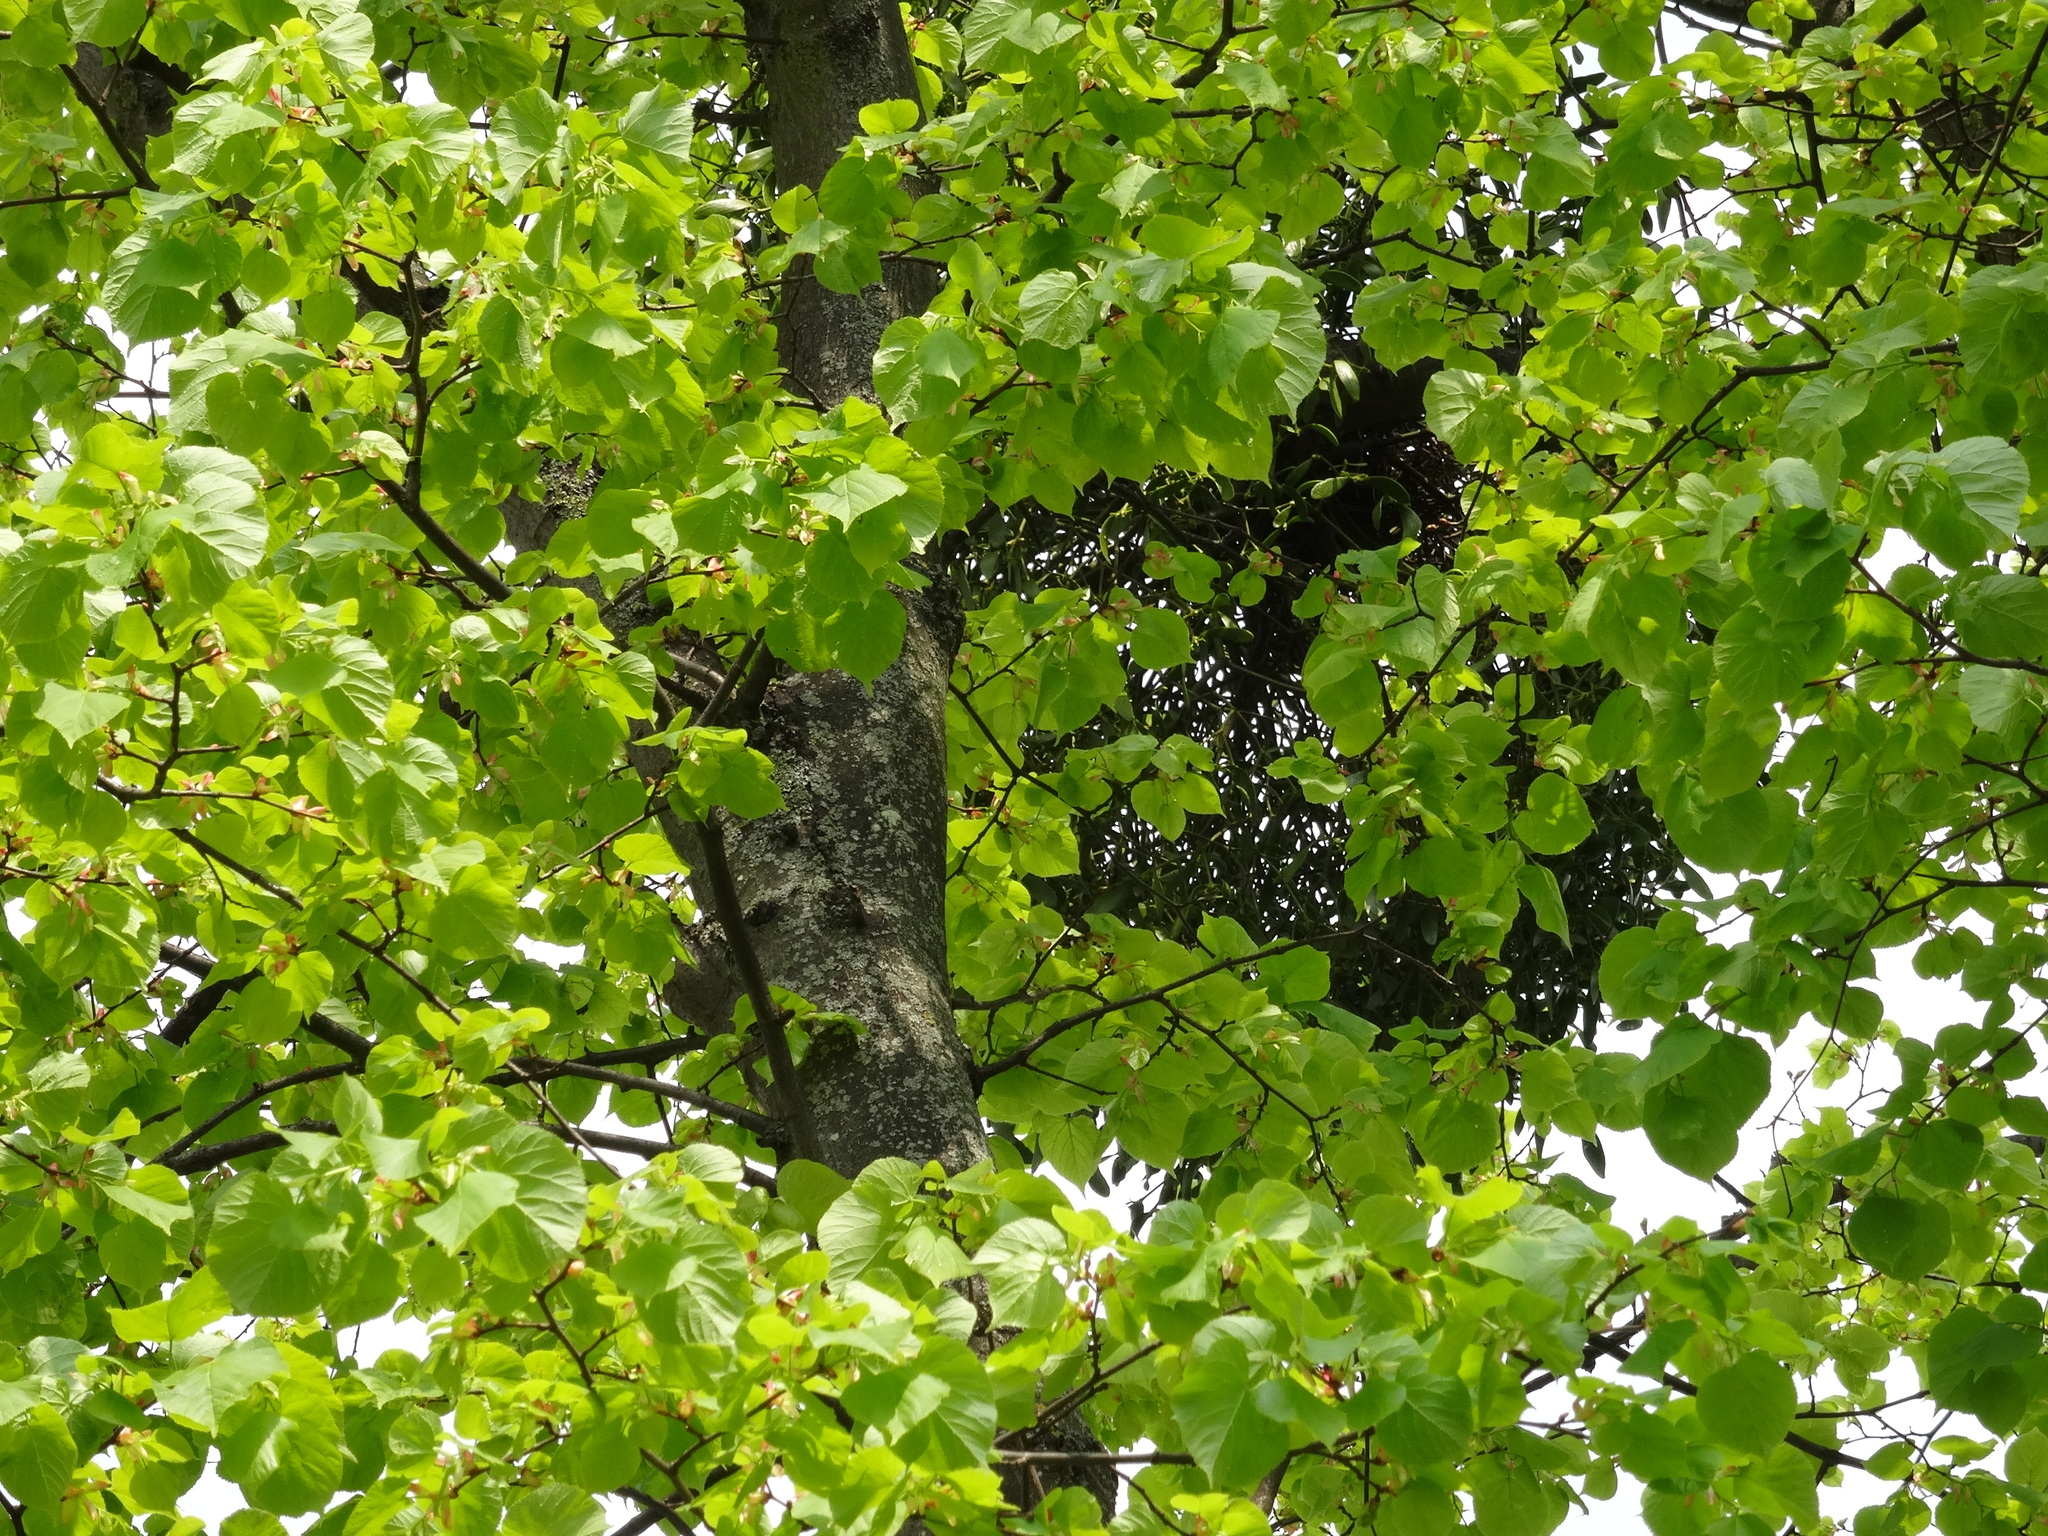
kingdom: Plantae
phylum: Tracheophyta
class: Magnoliopsida
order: Santalales
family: Viscaceae
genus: Viscum
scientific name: Viscum album
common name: Mistletoe
